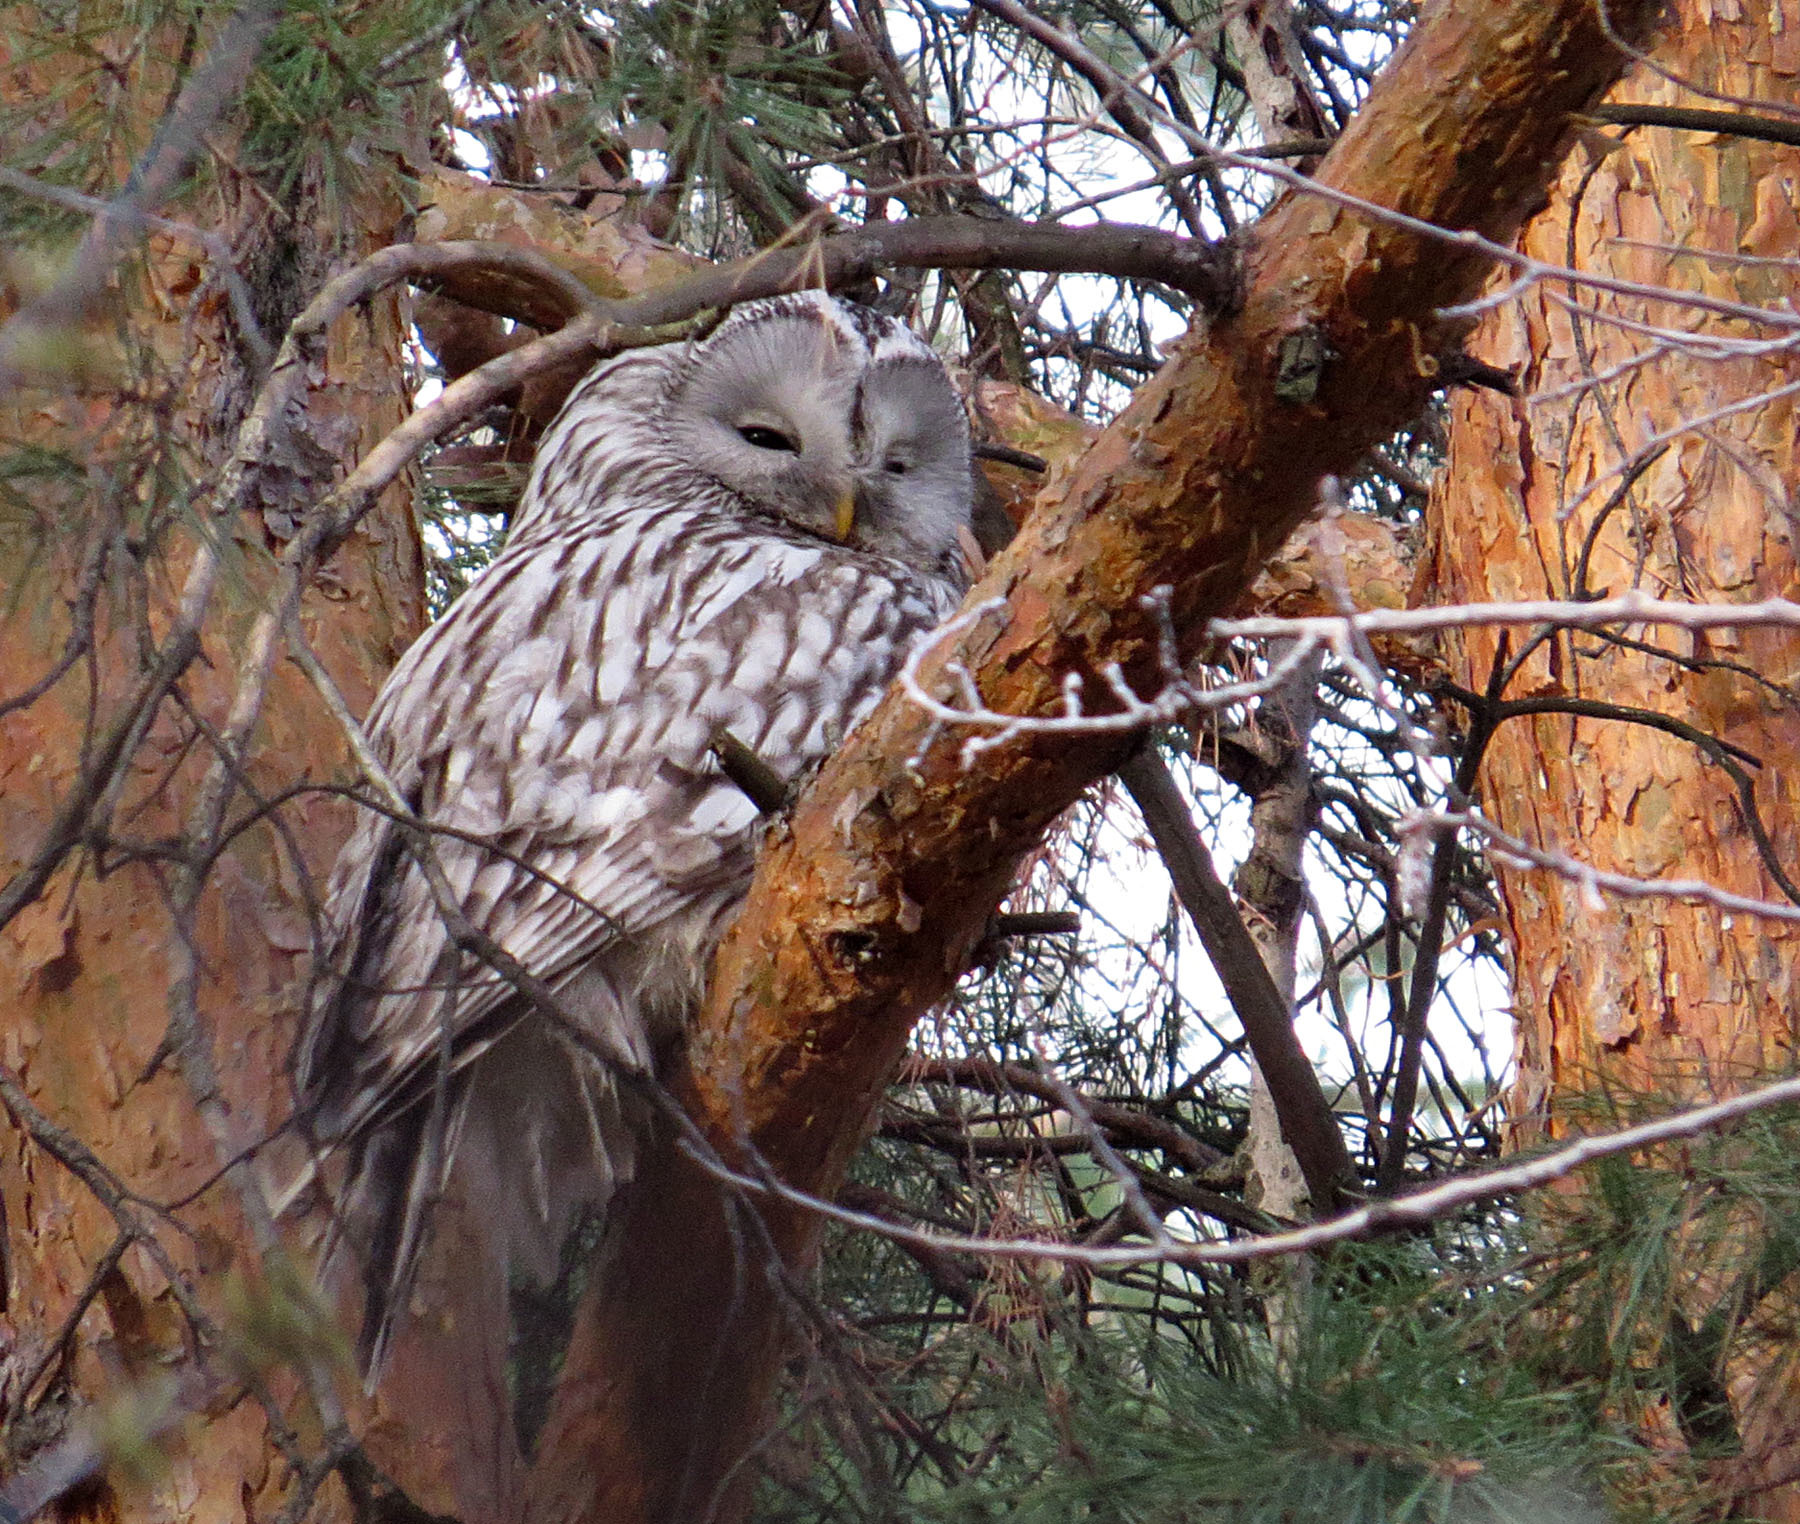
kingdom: Animalia
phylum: Chordata
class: Aves
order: Strigiformes
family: Strigidae
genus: Strix
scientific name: Strix uralensis
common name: Ural owl
